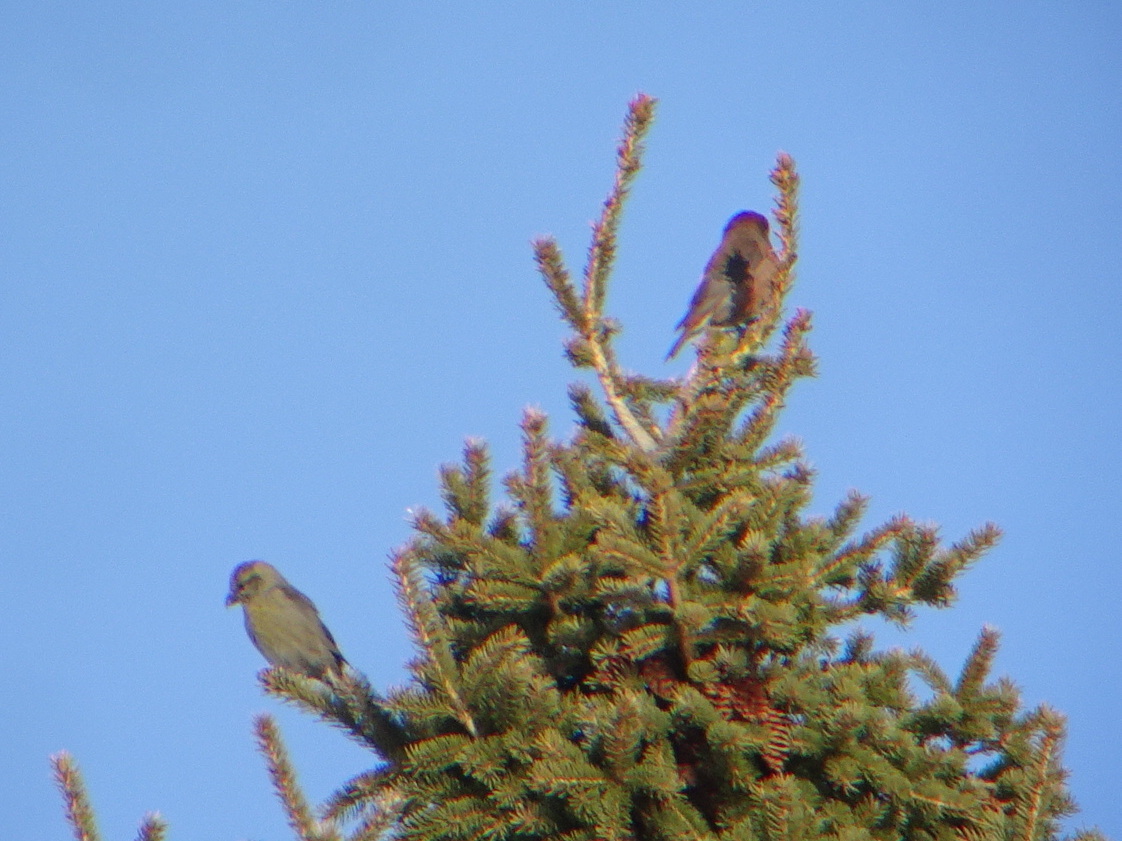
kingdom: Animalia
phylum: Chordata
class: Aves
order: Passeriformes
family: Fringillidae
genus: Loxia
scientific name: Loxia curvirostra
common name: Red crossbill
